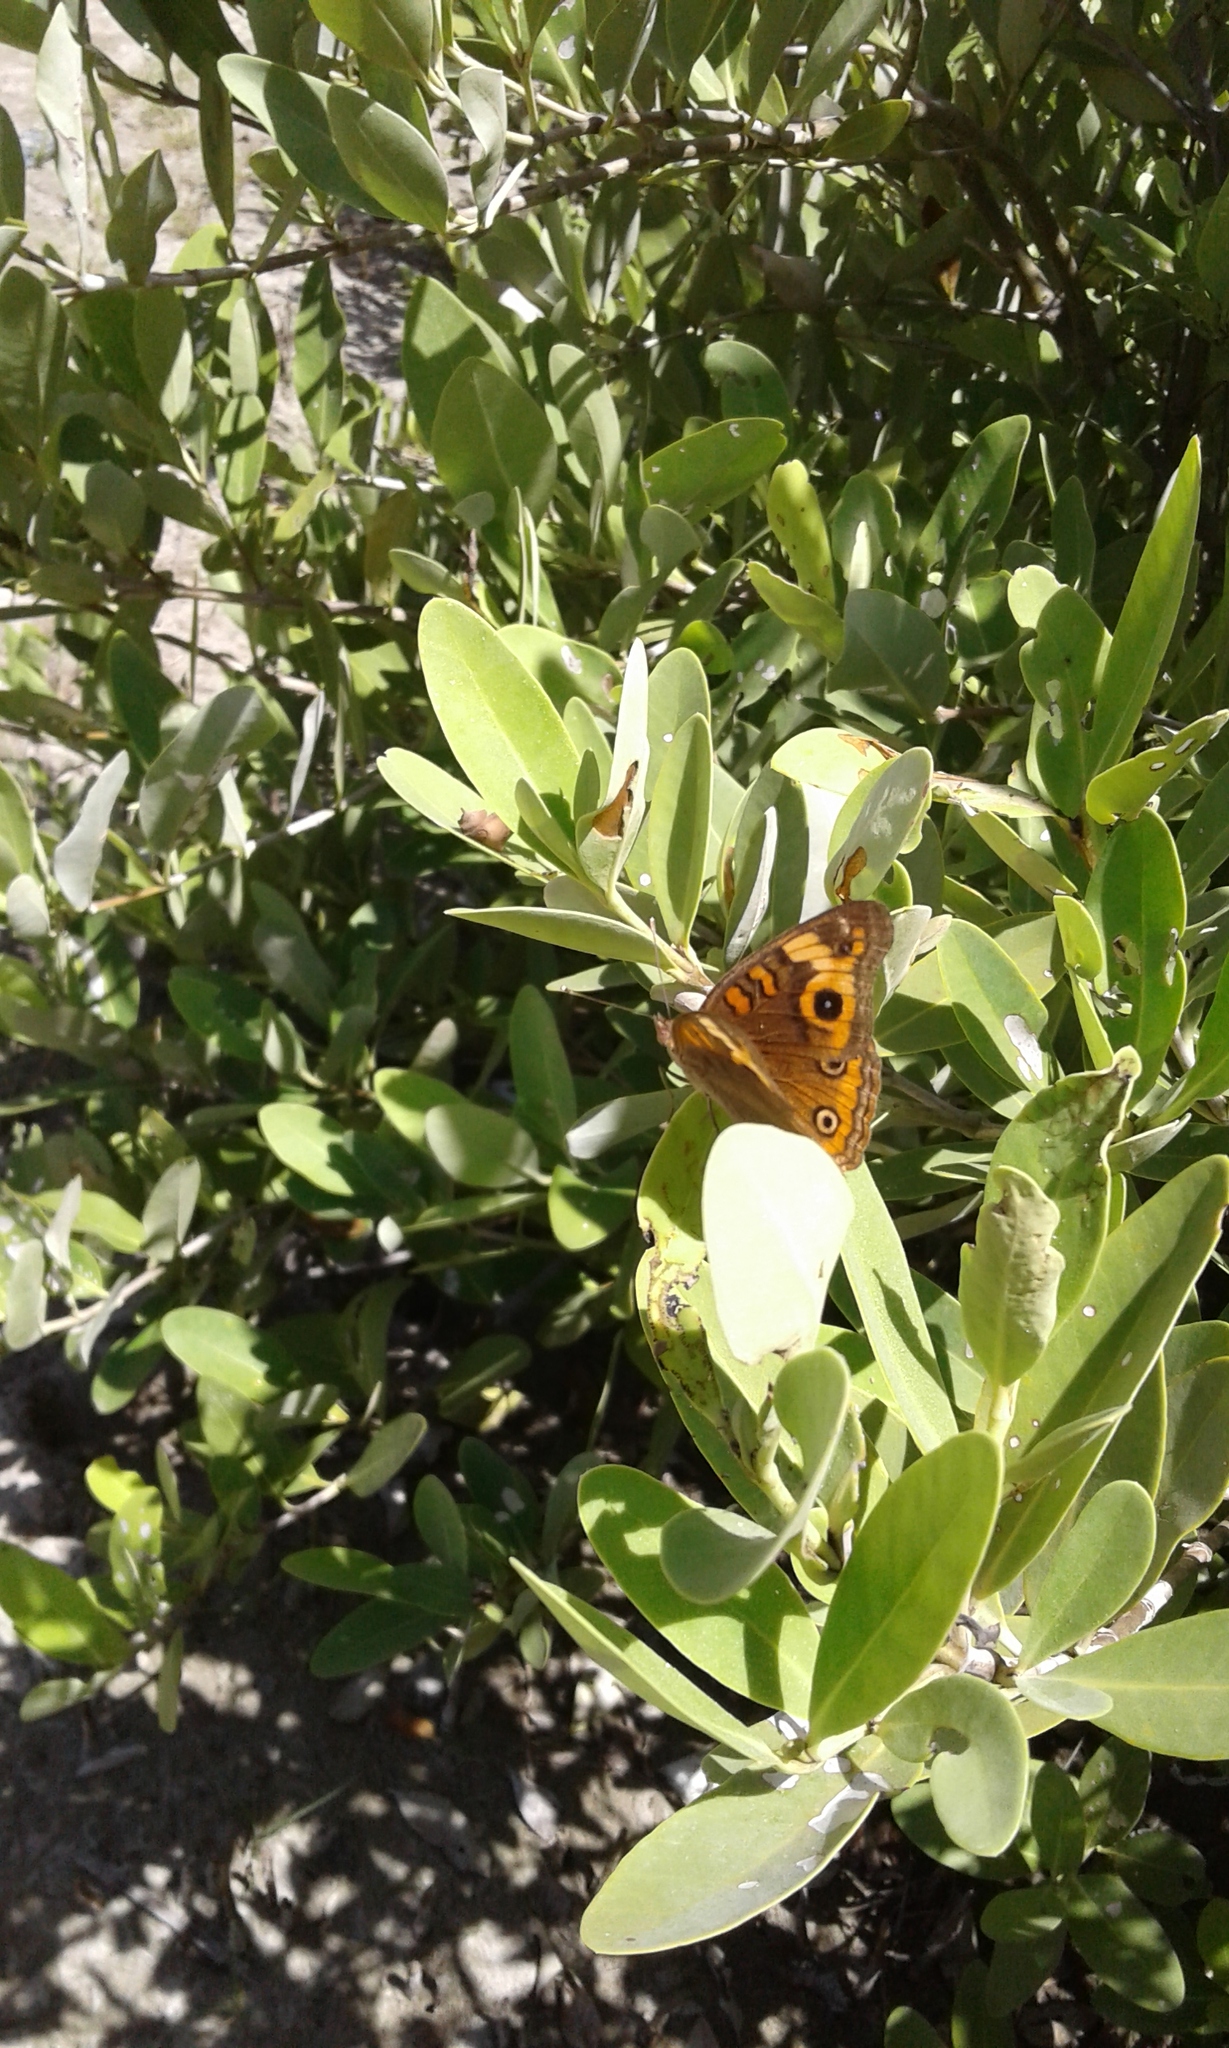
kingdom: Animalia
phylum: Arthropoda
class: Insecta
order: Lepidoptera
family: Nymphalidae
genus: Junonia
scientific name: Junonia neildi
